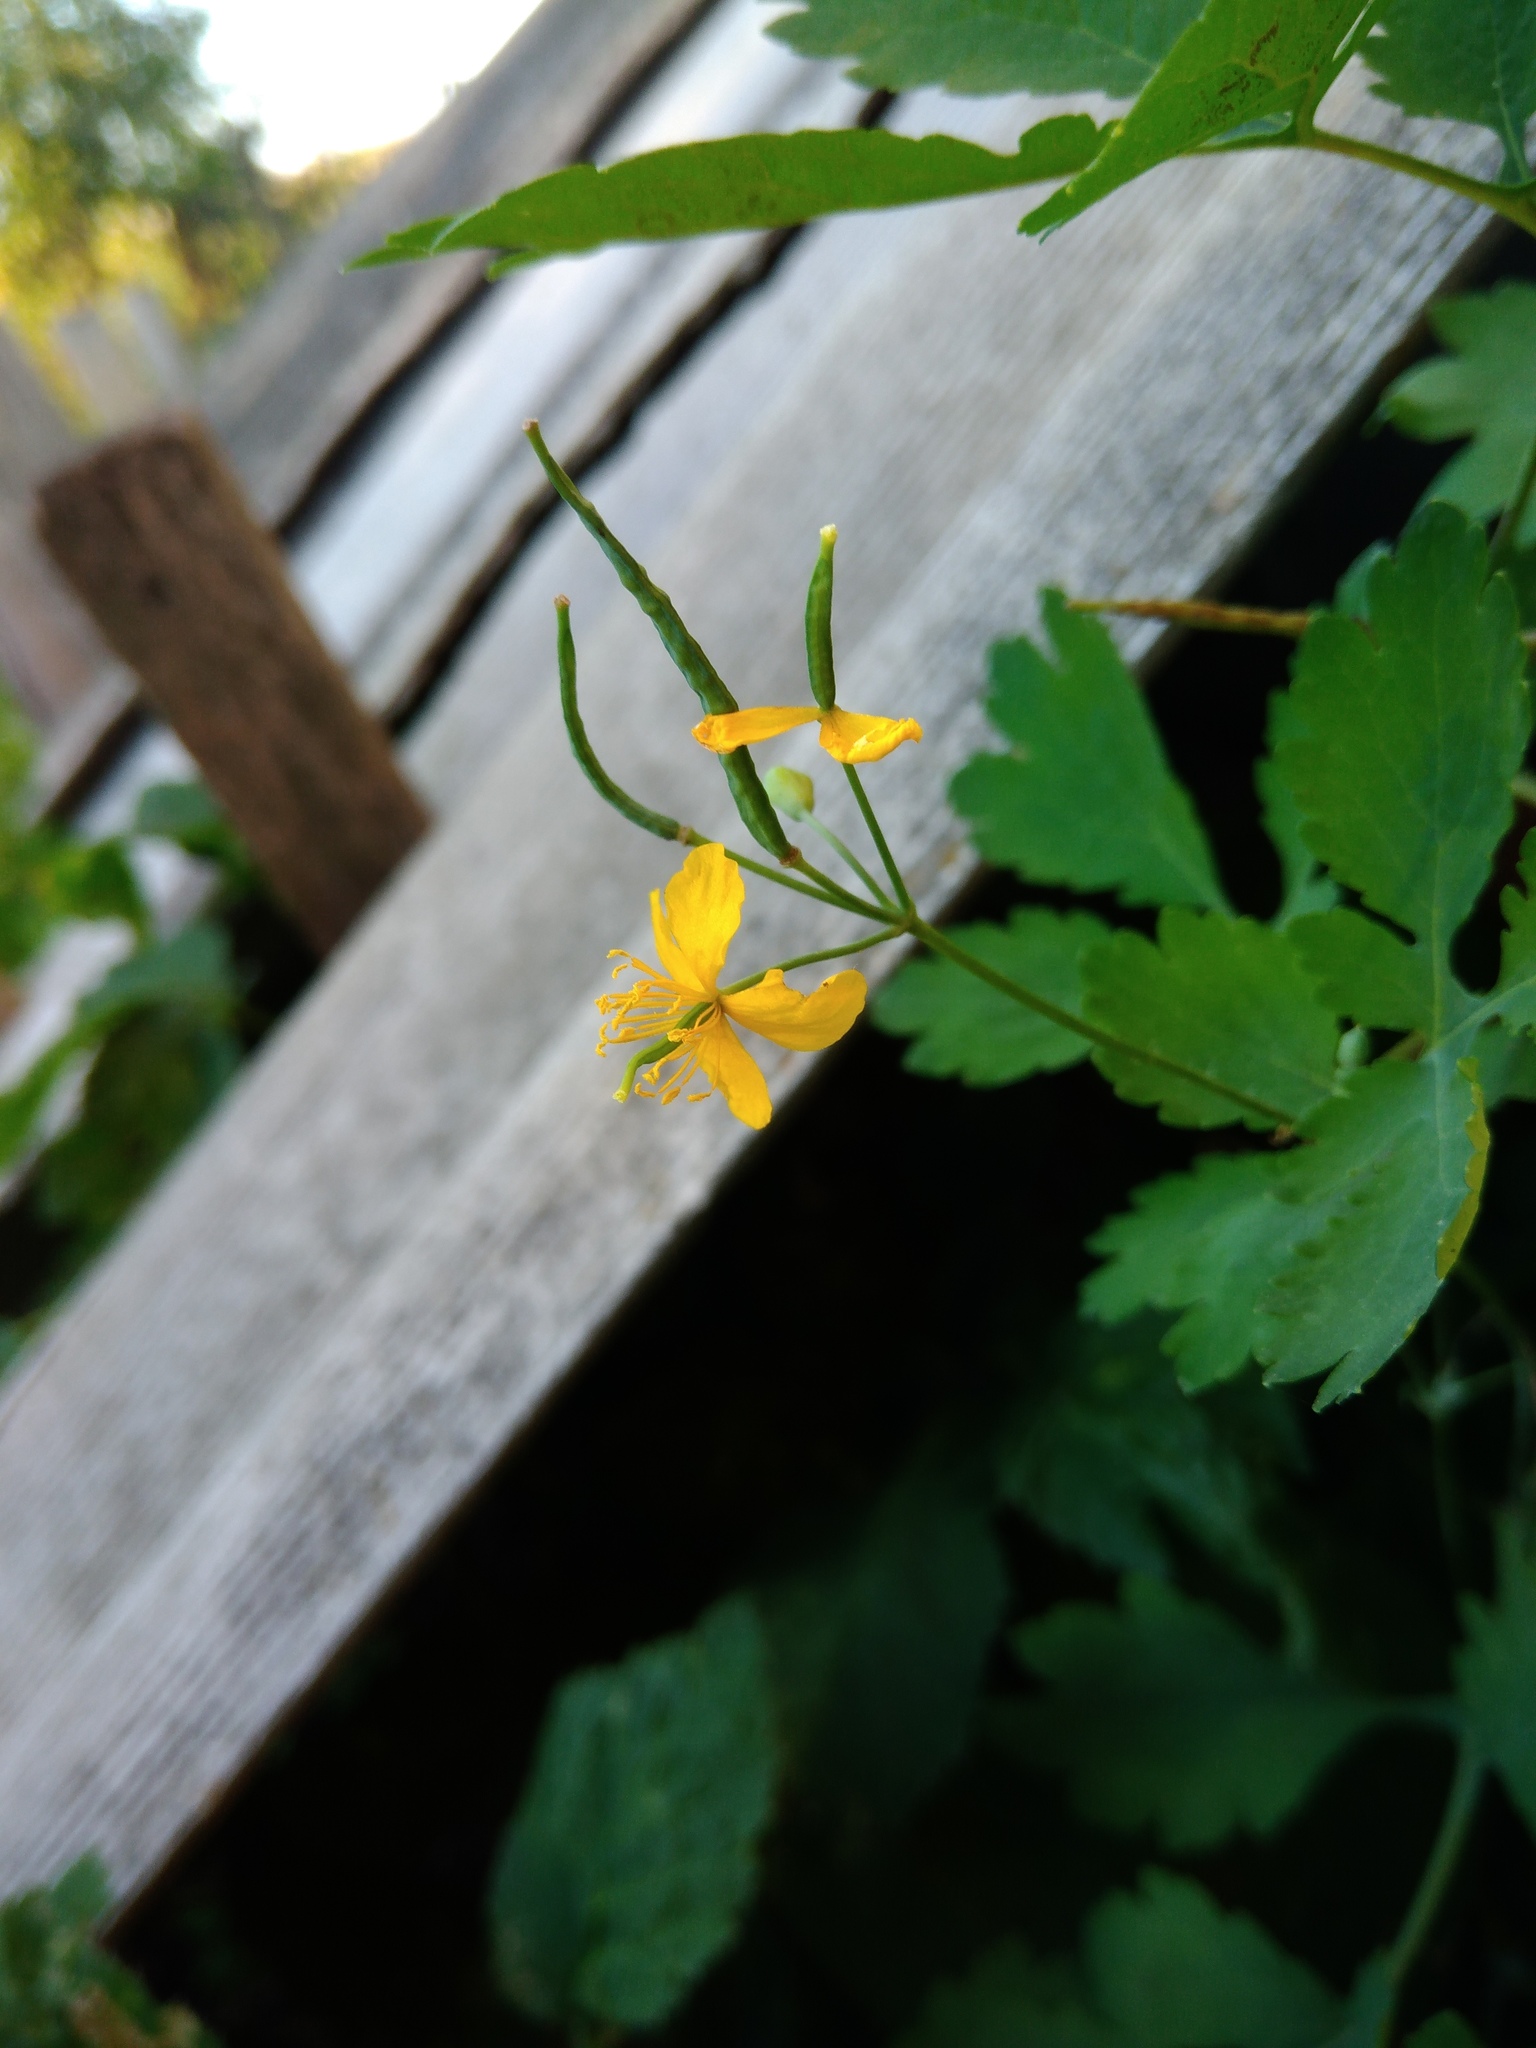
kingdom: Plantae
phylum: Tracheophyta
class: Magnoliopsida
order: Ranunculales
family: Papaveraceae
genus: Chelidonium
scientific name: Chelidonium majus
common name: Greater celandine
